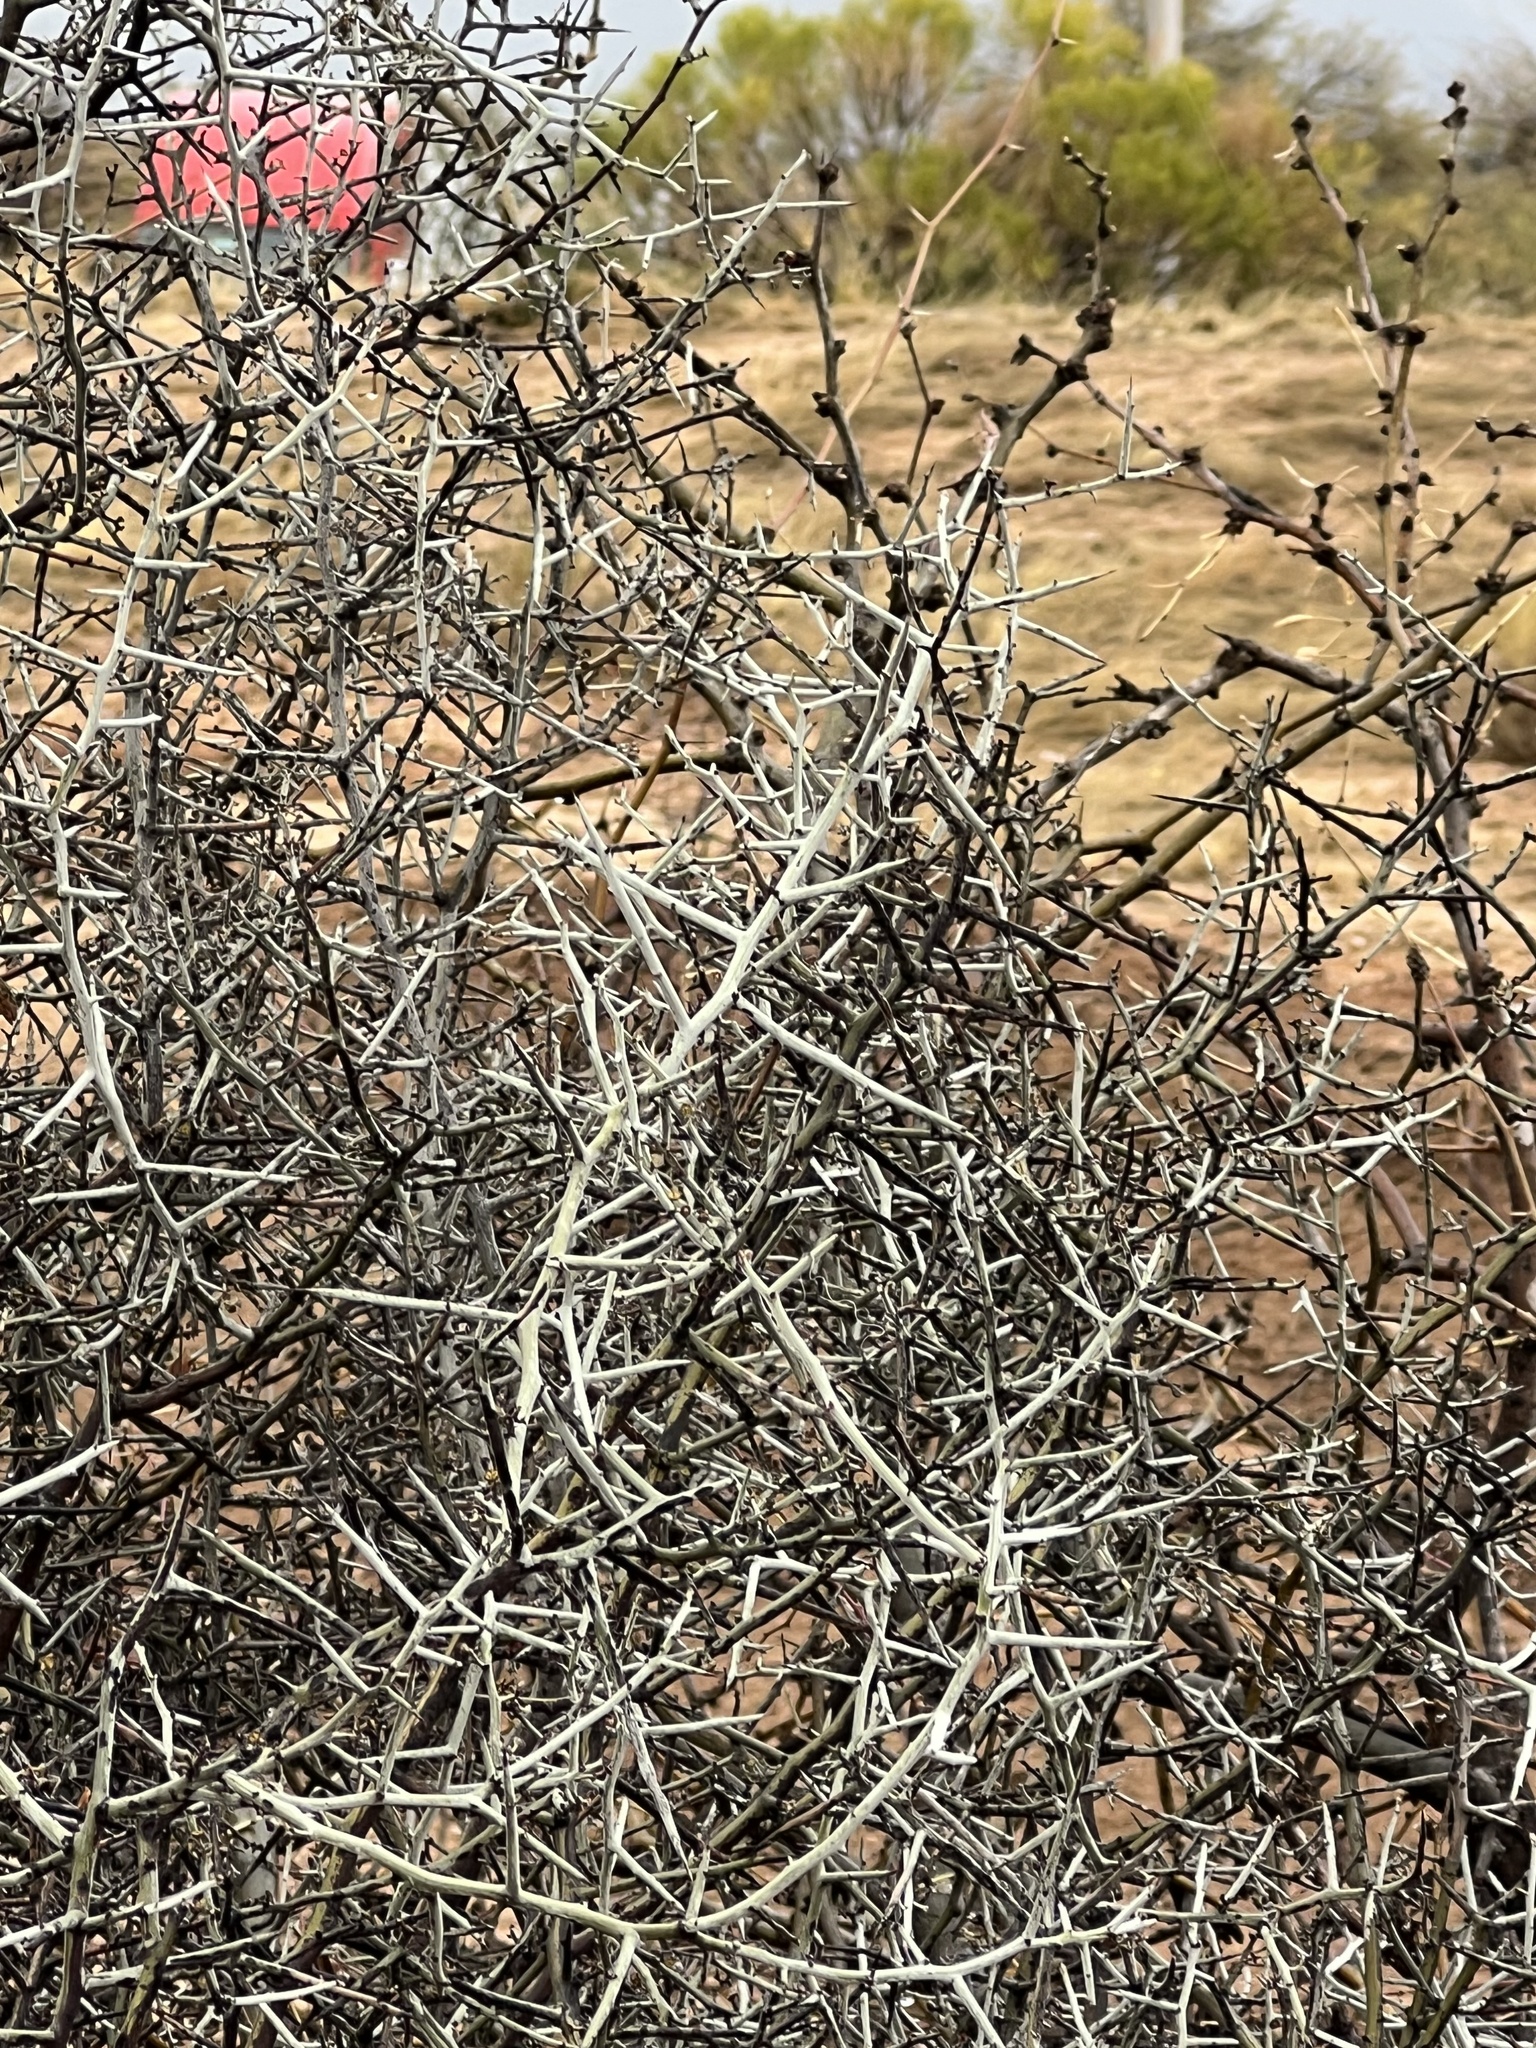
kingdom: Plantae
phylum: Tracheophyta
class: Magnoliopsida
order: Rosales
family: Rhamnaceae
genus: Sarcomphalus
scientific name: Sarcomphalus obtusifolius
